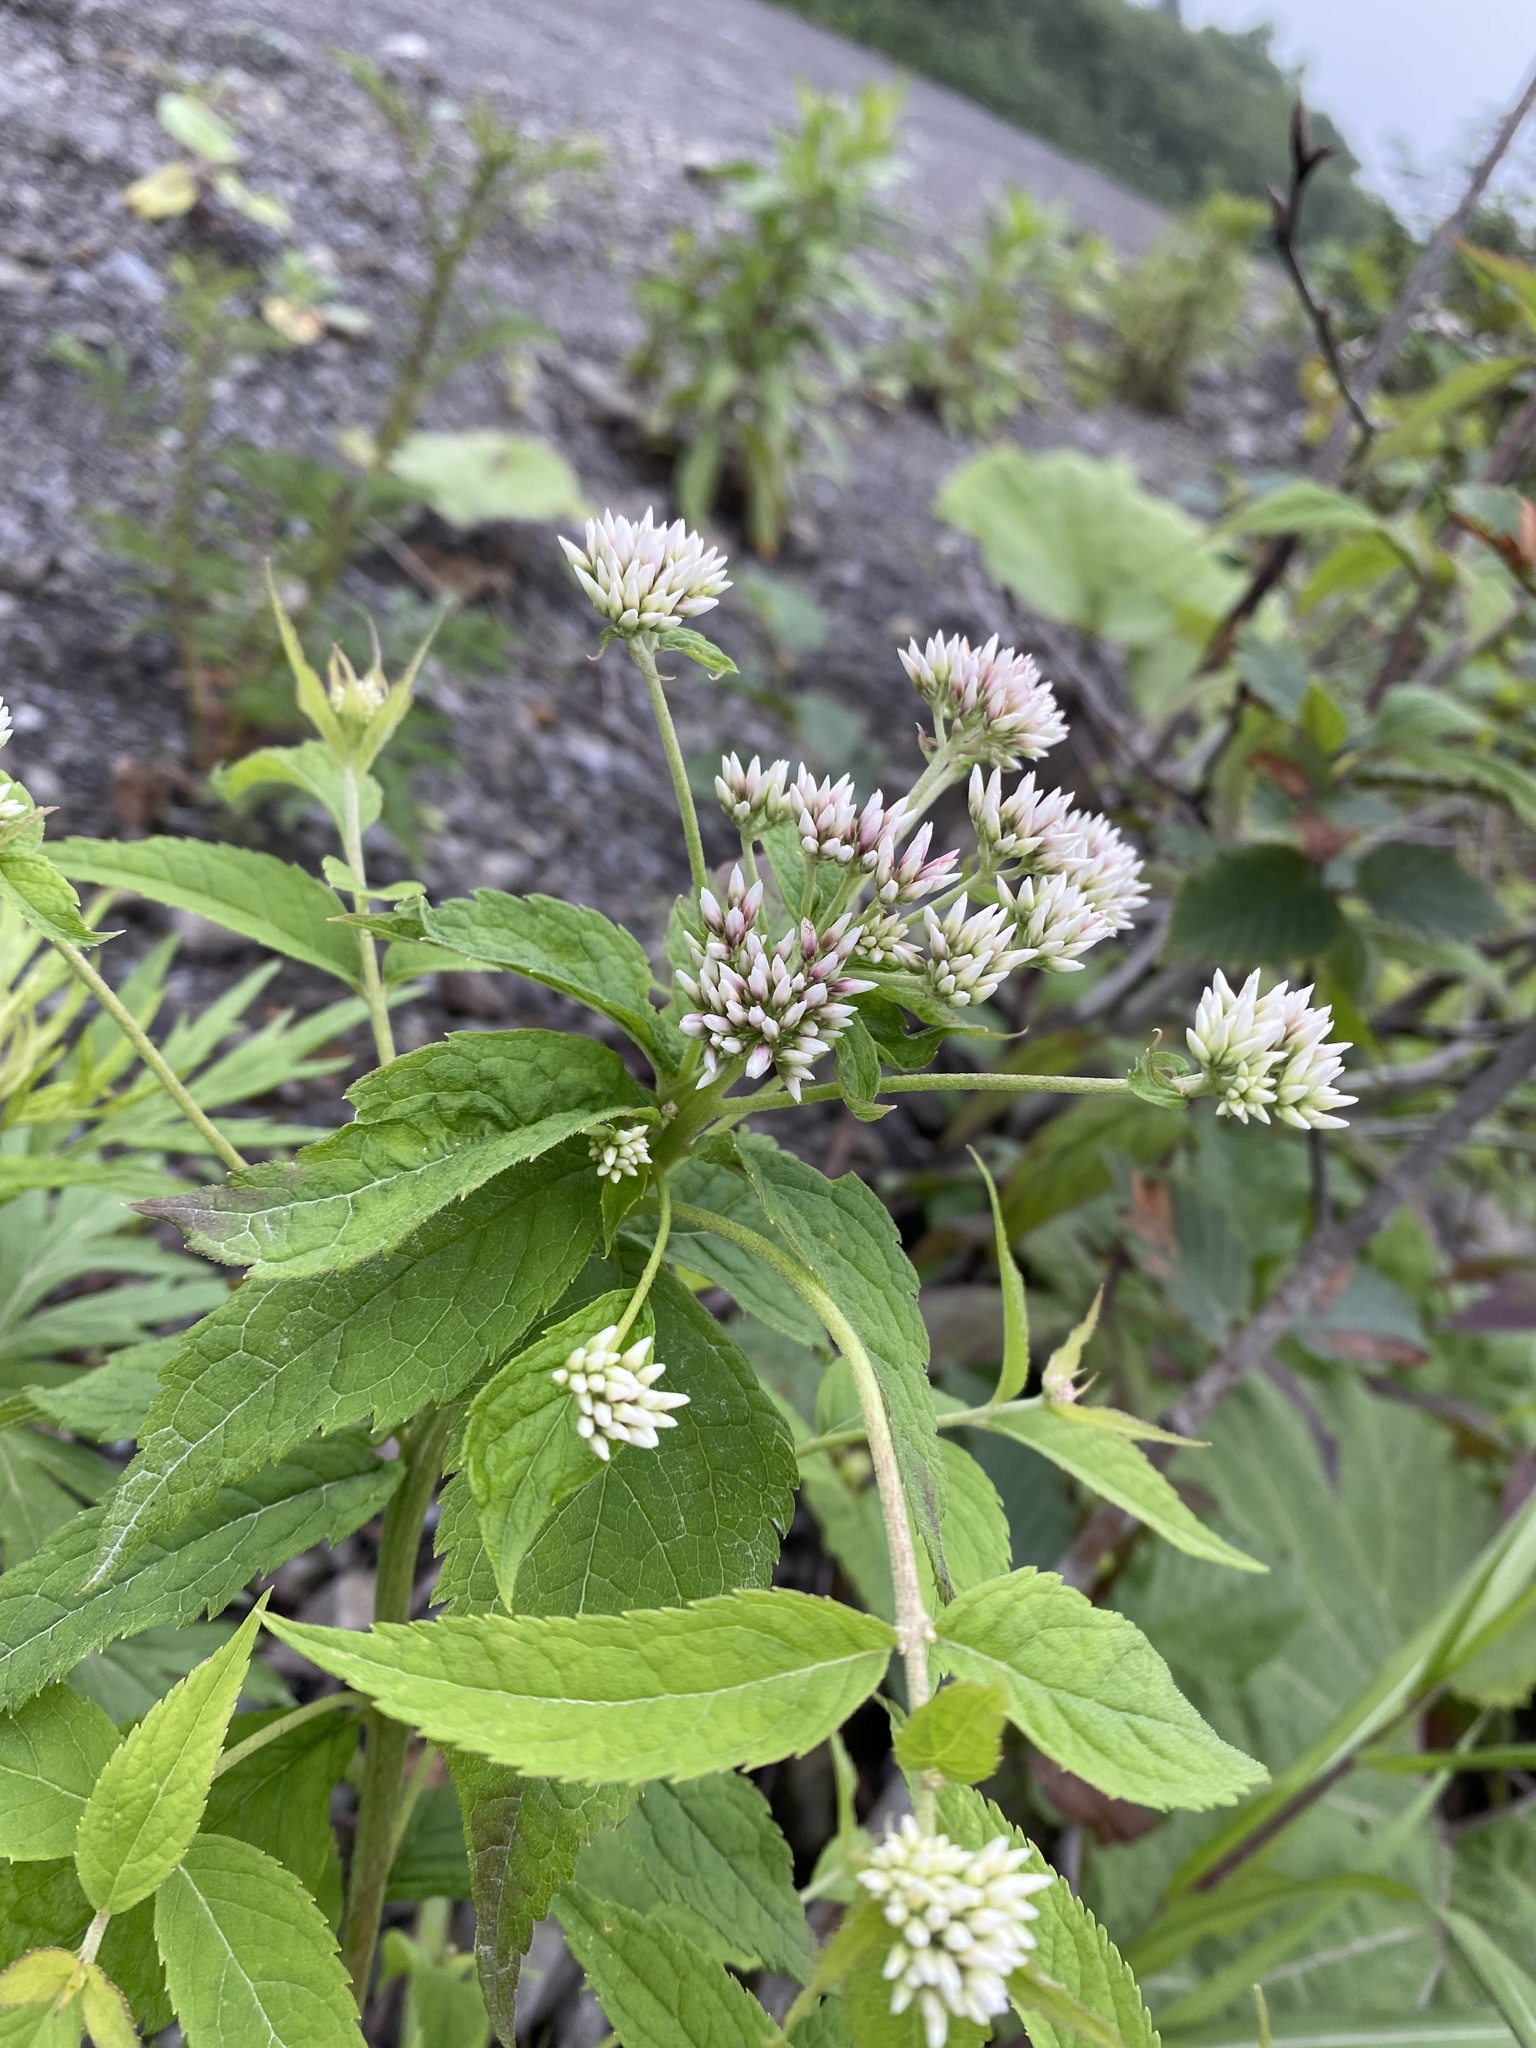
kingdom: Plantae
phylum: Tracheophyta
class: Magnoliopsida
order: Asterales
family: Asteraceae
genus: Eupatorium
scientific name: Eupatorium glehnii
